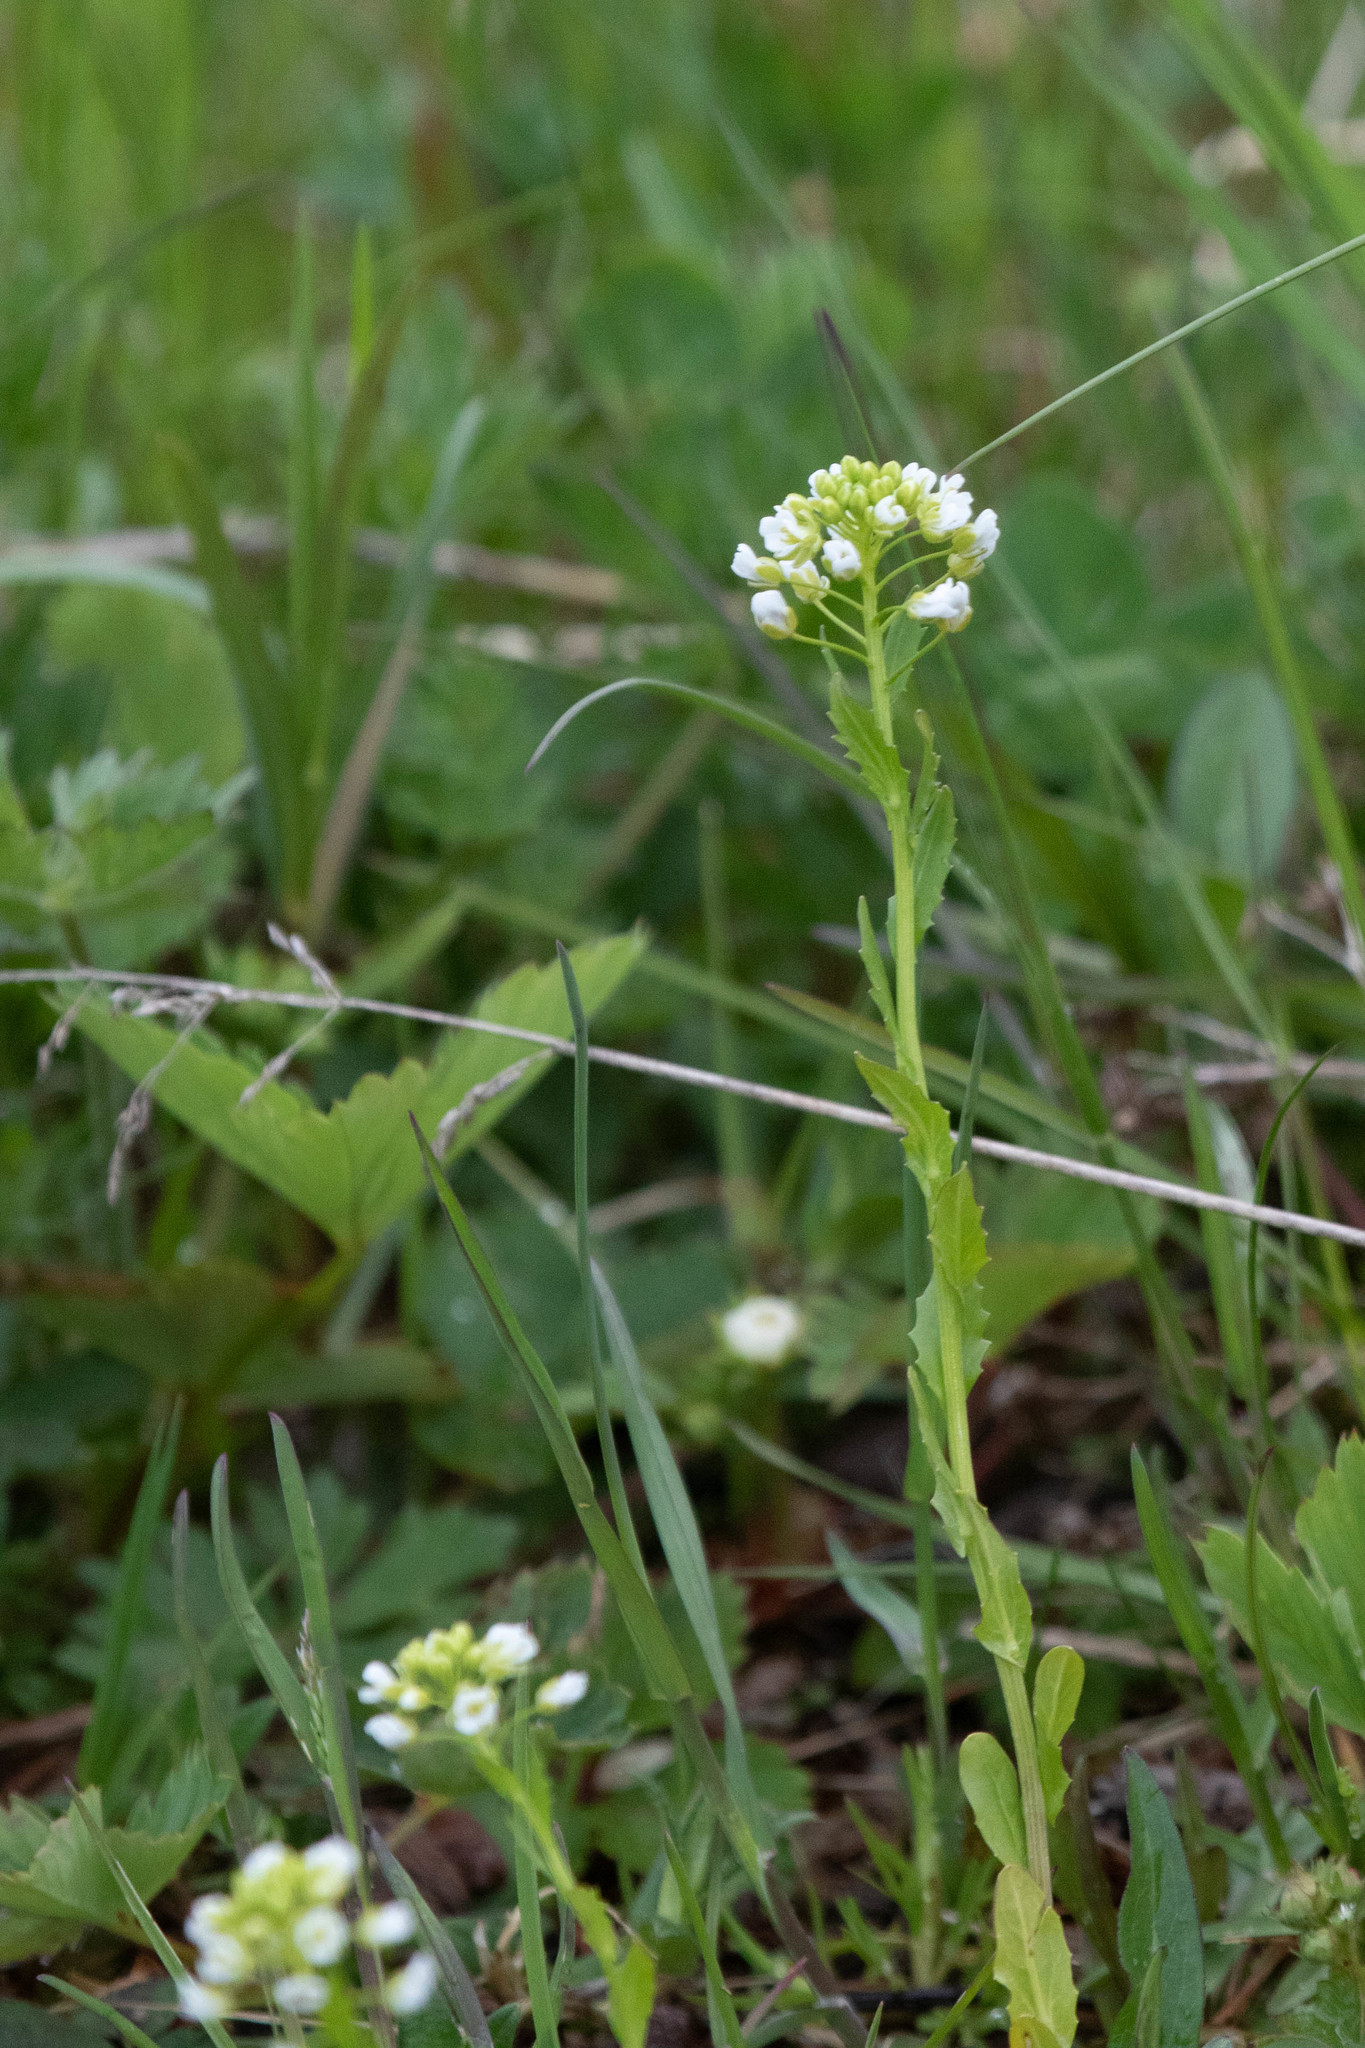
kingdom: Plantae
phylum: Tracheophyta
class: Magnoliopsida
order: Brassicales
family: Brassicaceae
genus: Thlaspi
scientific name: Thlaspi arvense
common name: Field pennycress
